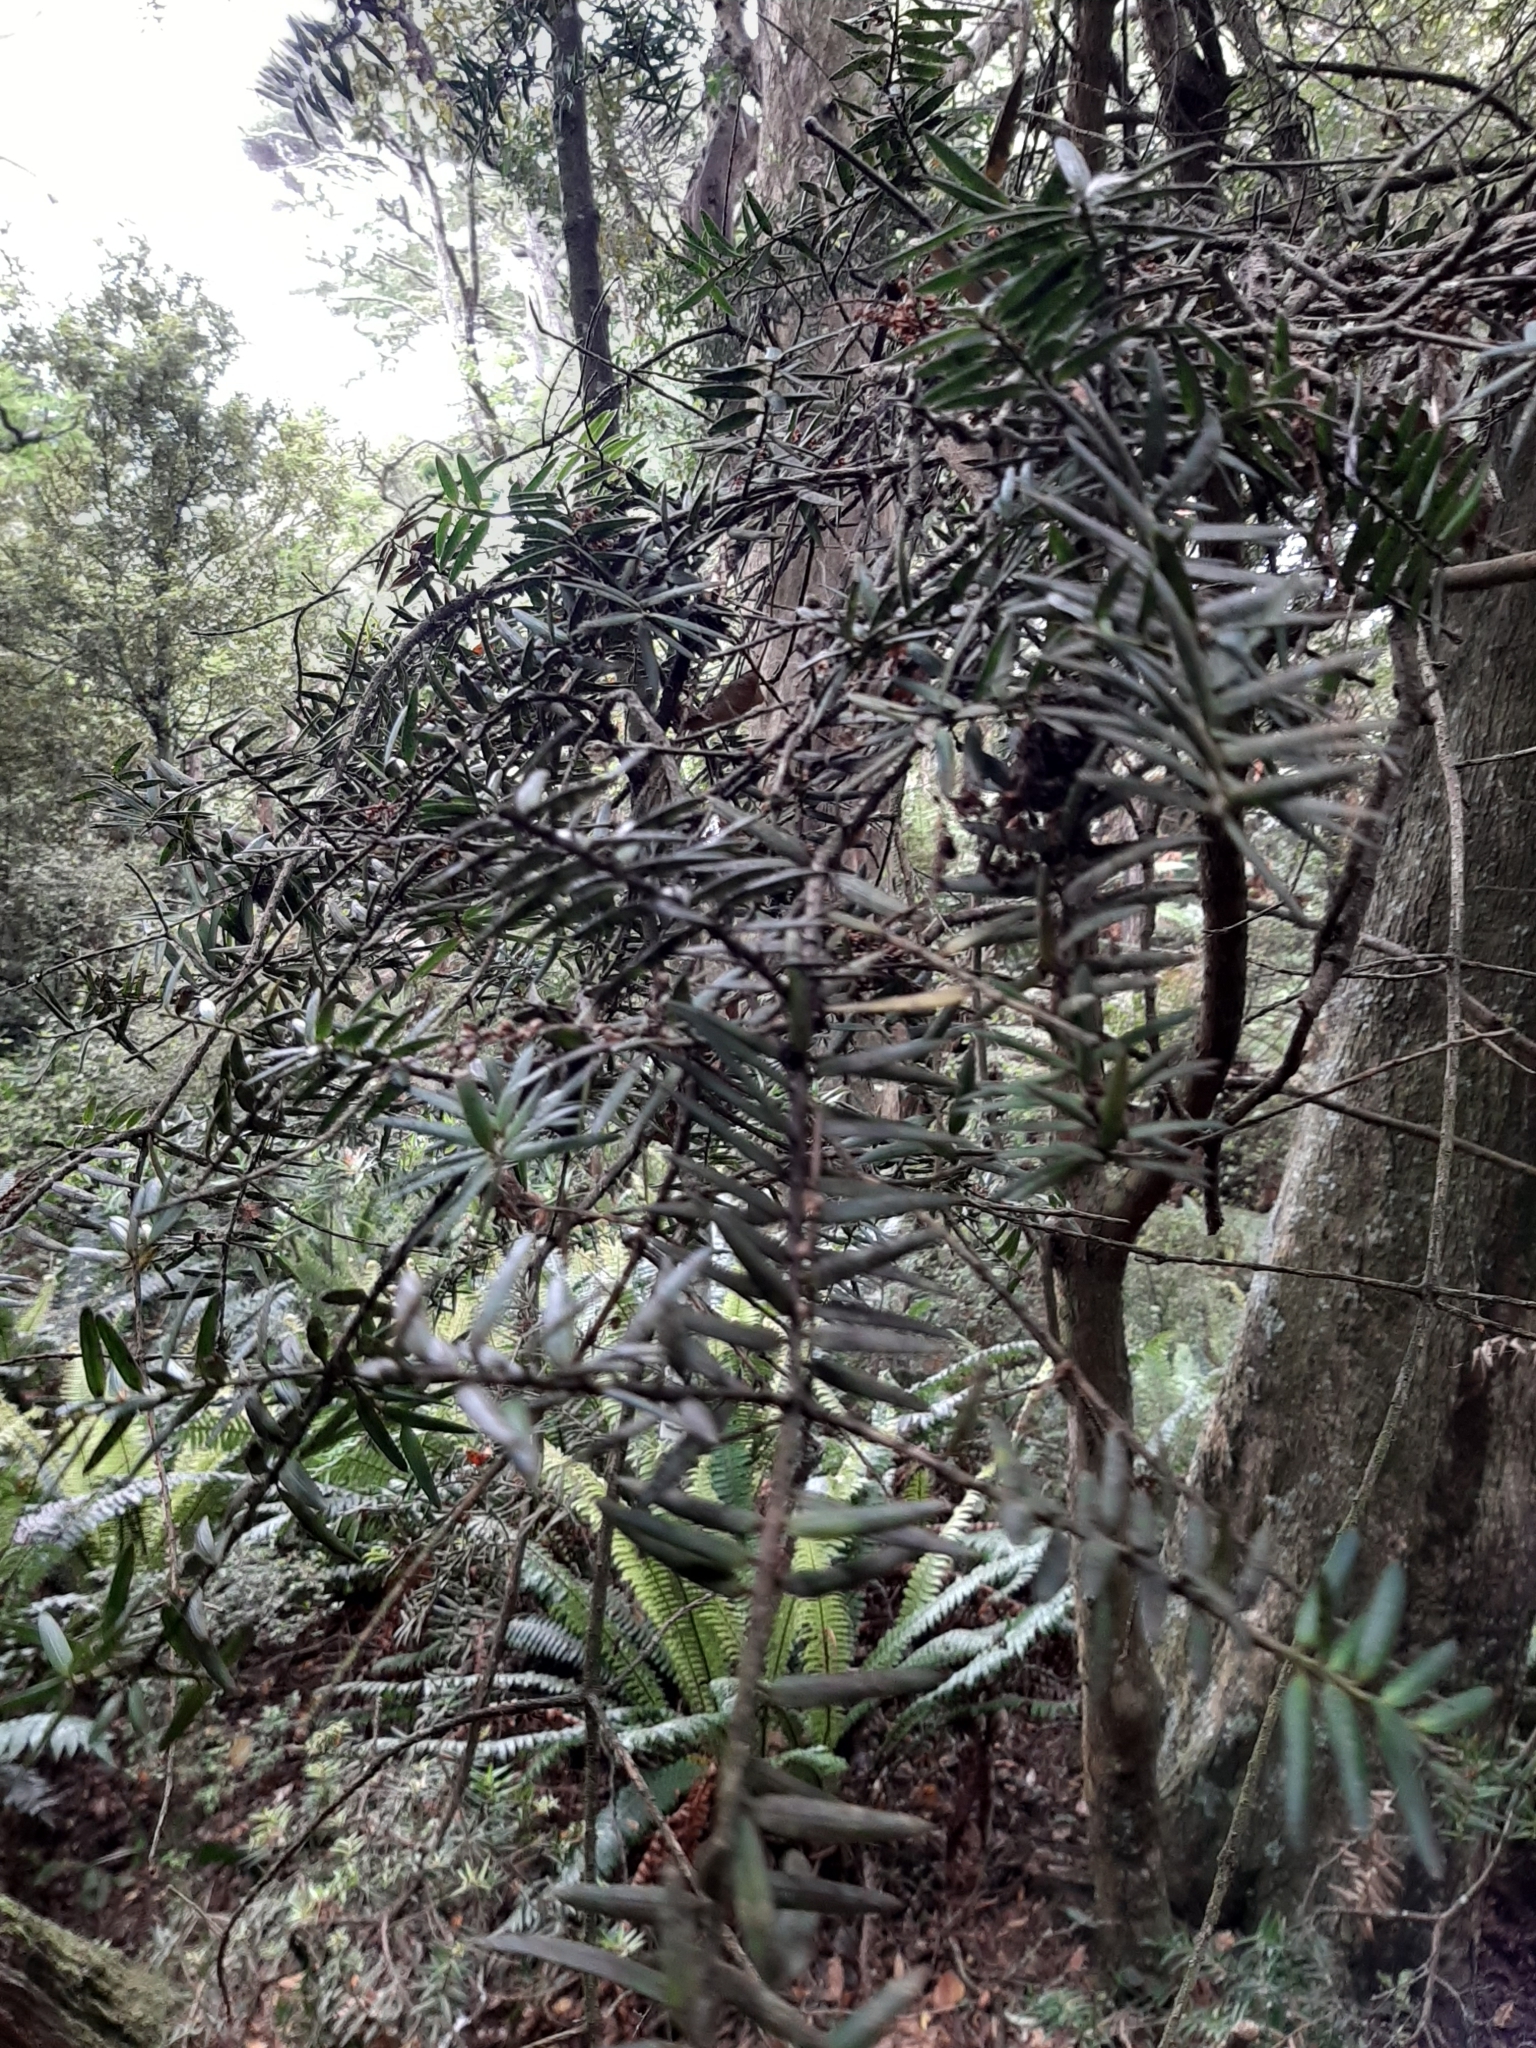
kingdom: Plantae
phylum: Tracheophyta
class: Pinopsida
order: Pinales
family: Podocarpaceae
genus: Podocarpus
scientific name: Podocarpus totara
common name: Totara
